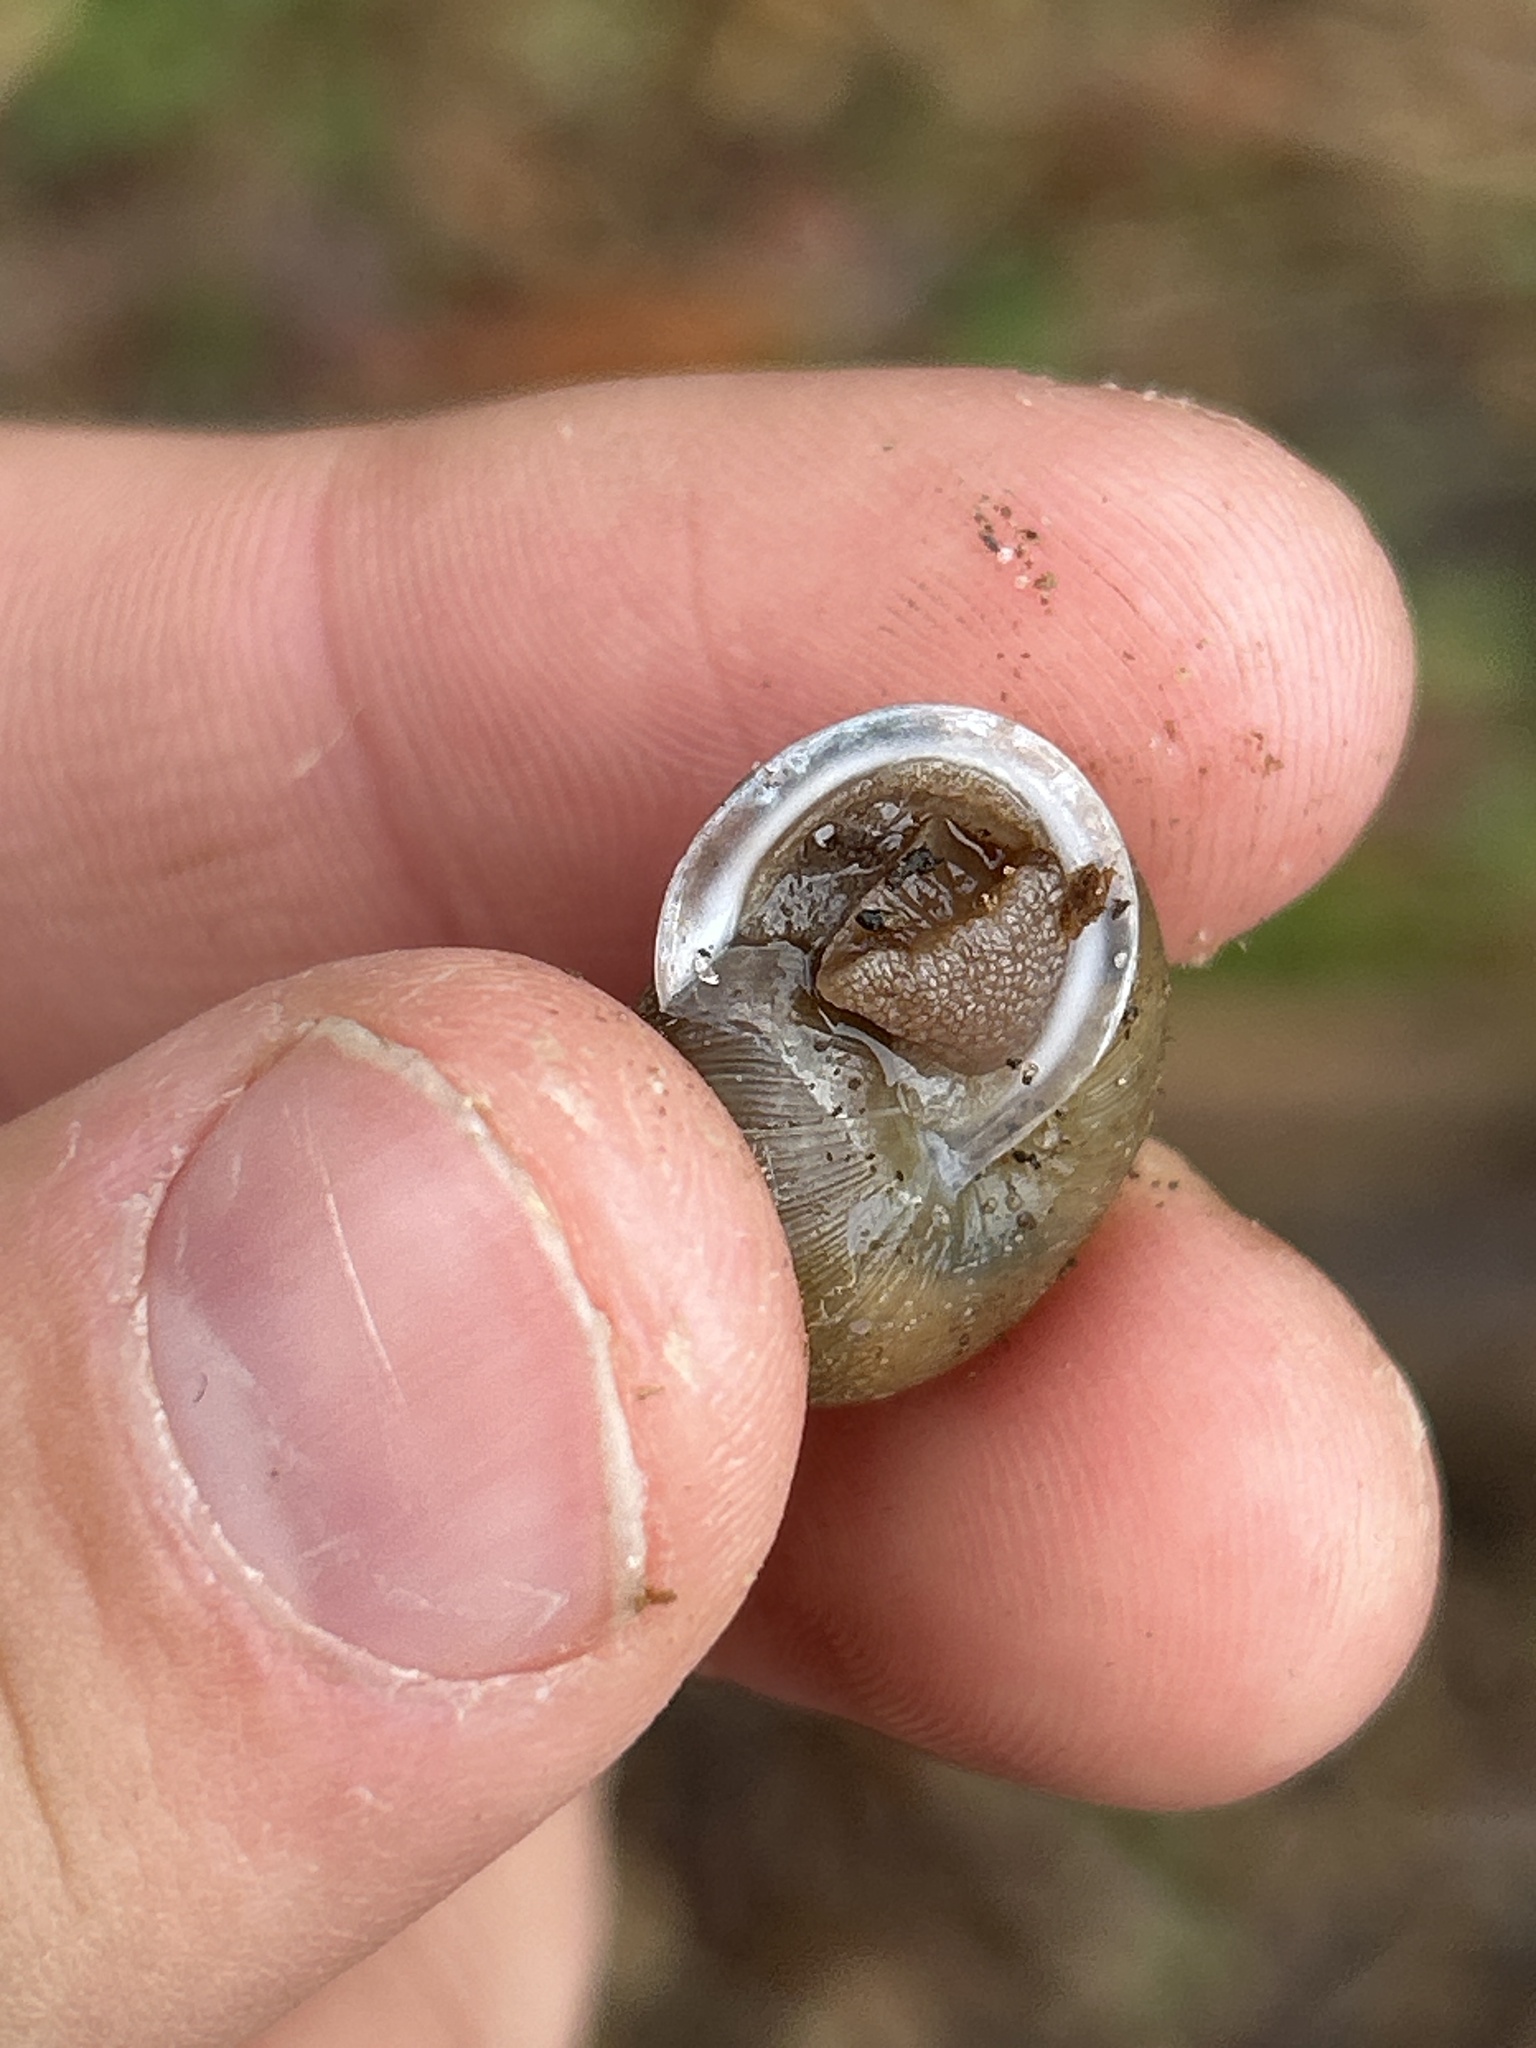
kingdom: Animalia
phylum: Mollusca
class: Gastropoda
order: Stylommatophora
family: Polygyridae
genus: Mesodon
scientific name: Mesodon thyroidus
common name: White-lip globe
